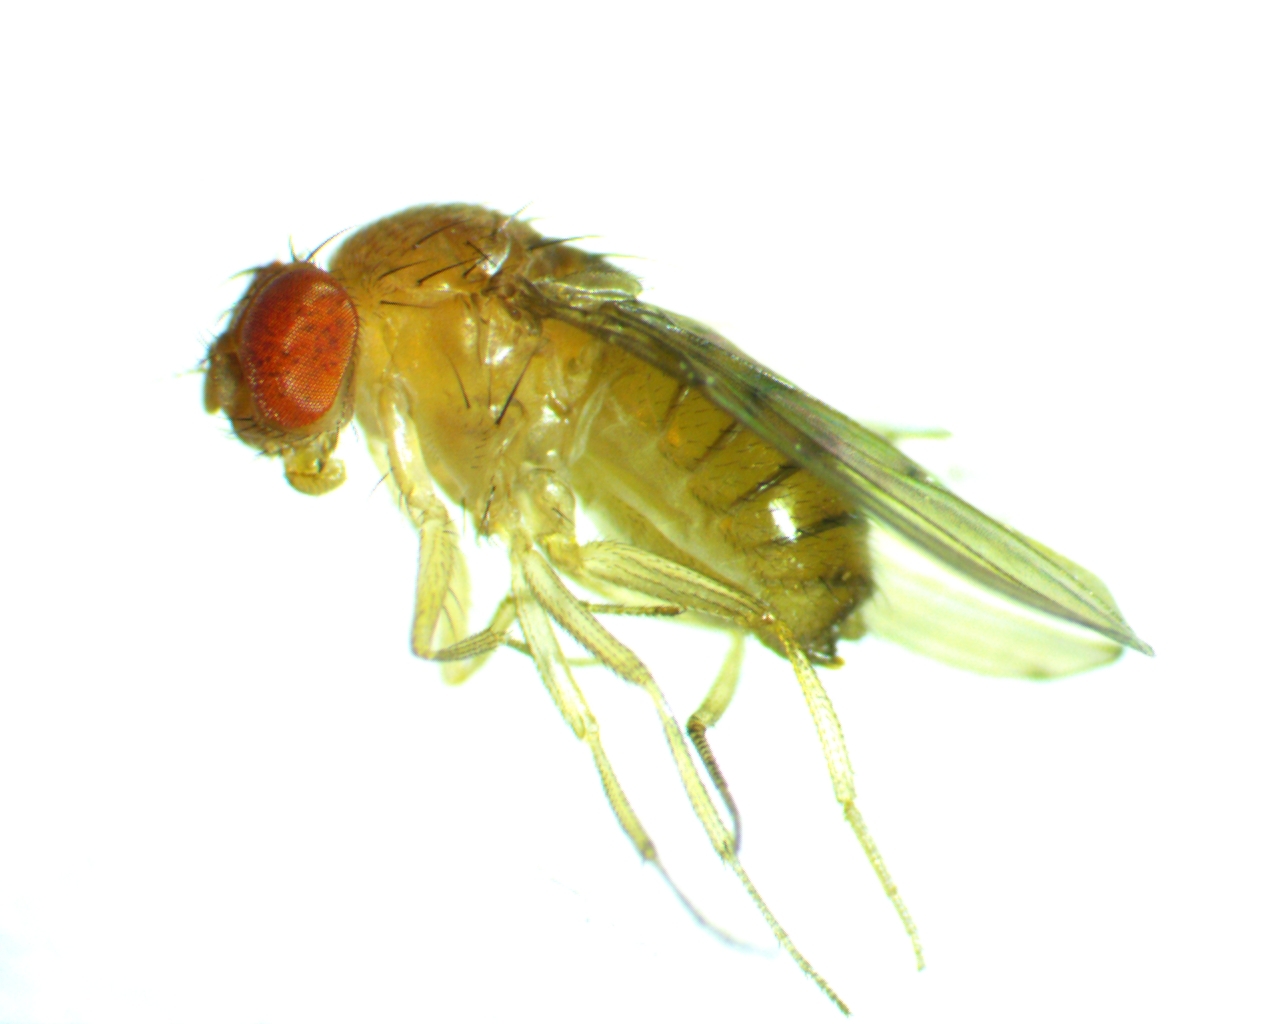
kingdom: Animalia
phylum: Arthropoda
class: Insecta
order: Diptera
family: Drosophilidae
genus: Drosophila
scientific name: Drosophila tripunctata
